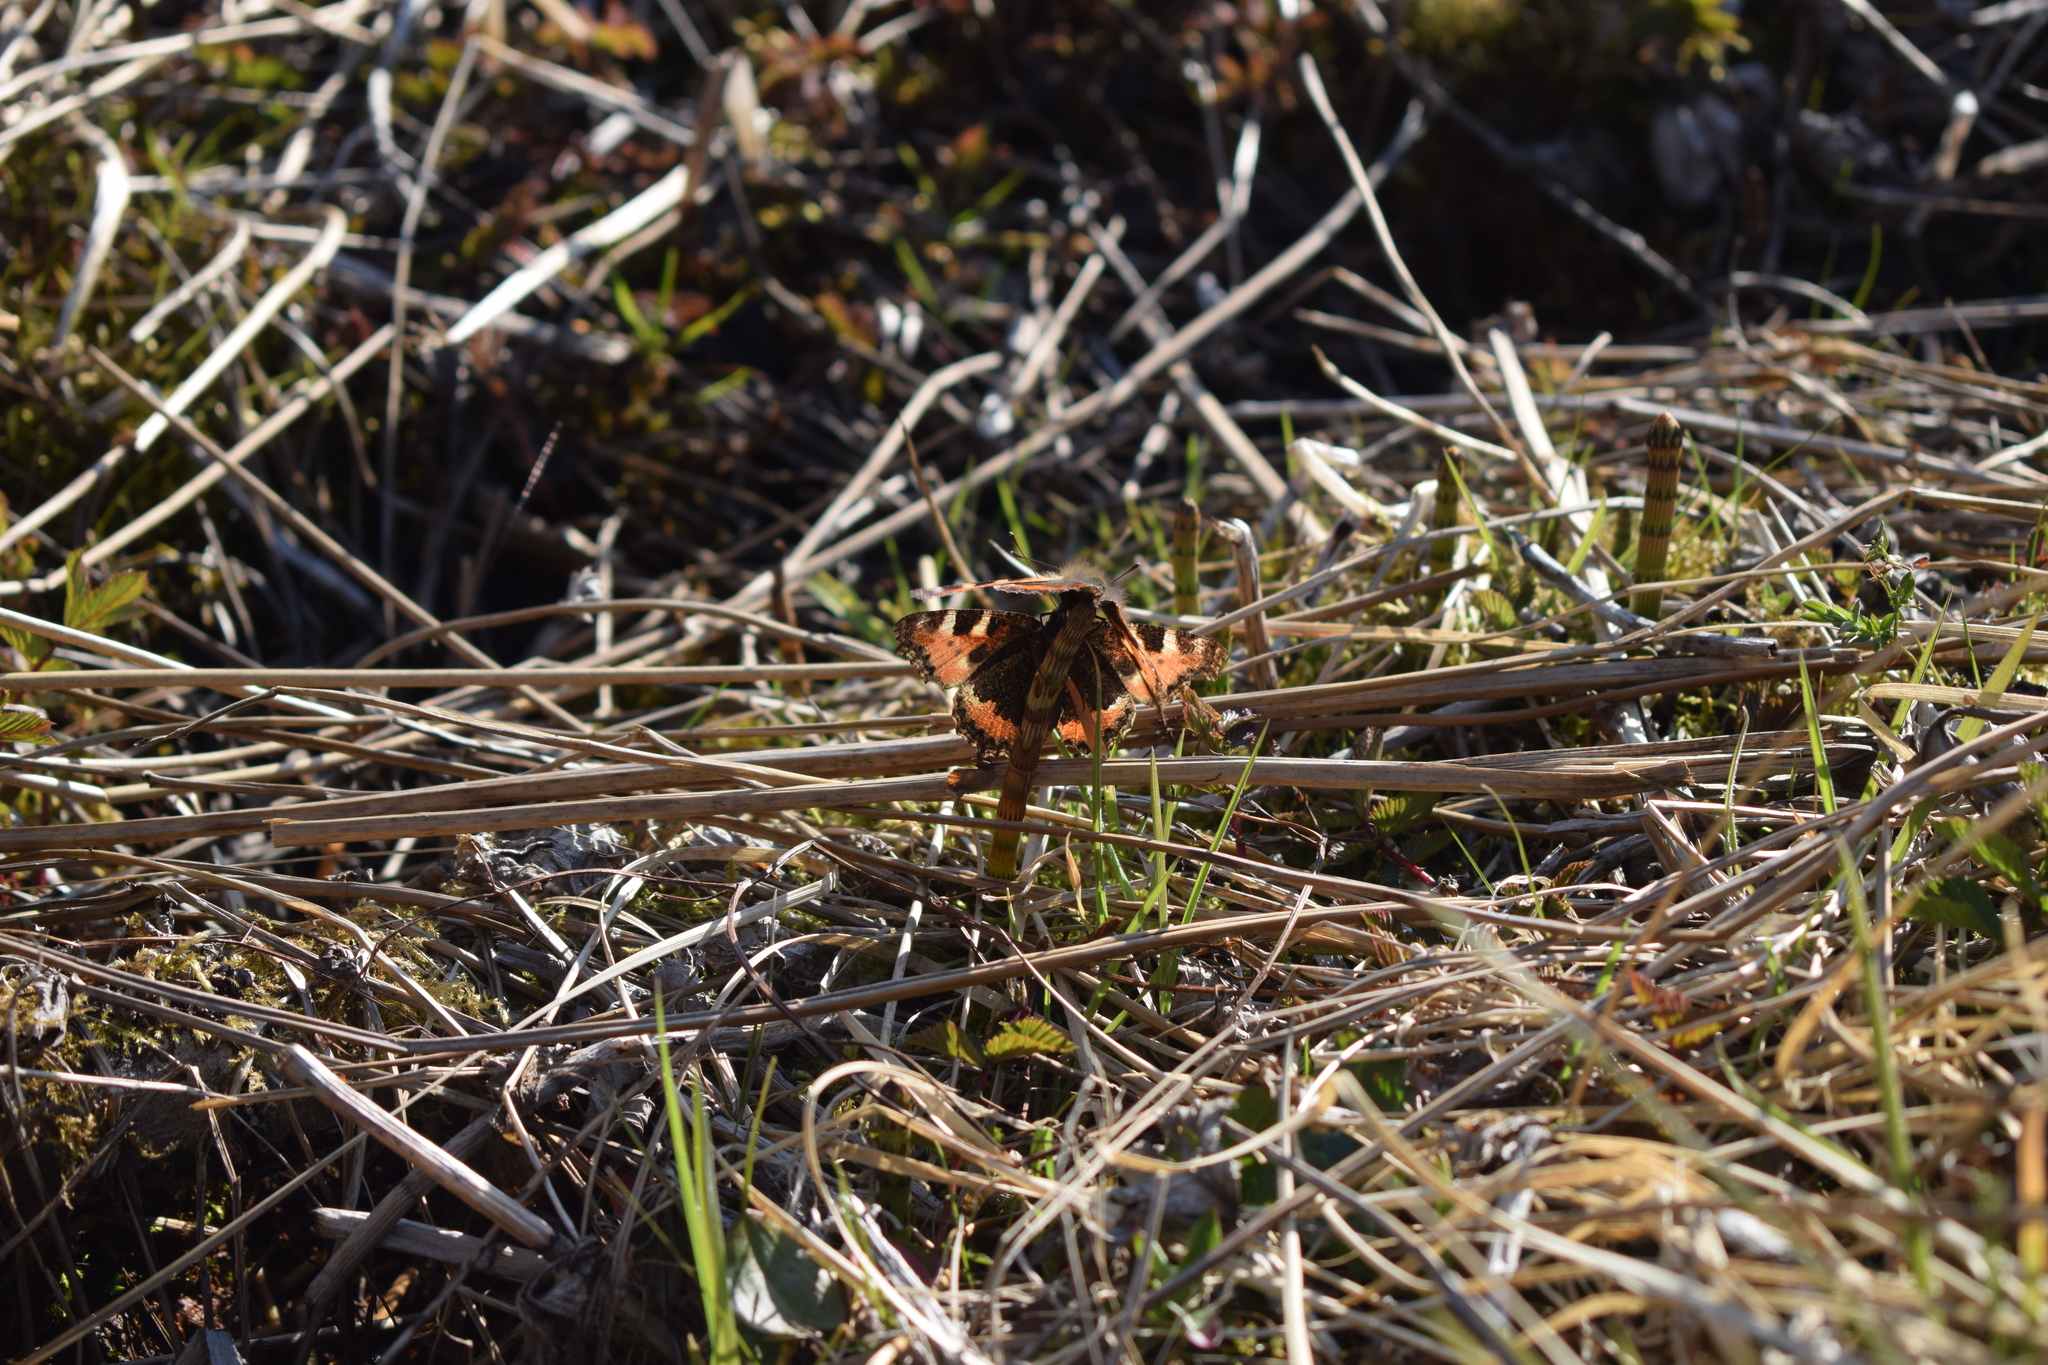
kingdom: Animalia
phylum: Arthropoda
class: Insecta
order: Lepidoptera
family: Nymphalidae
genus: Aglais
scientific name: Aglais urticae
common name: Small tortoiseshell
